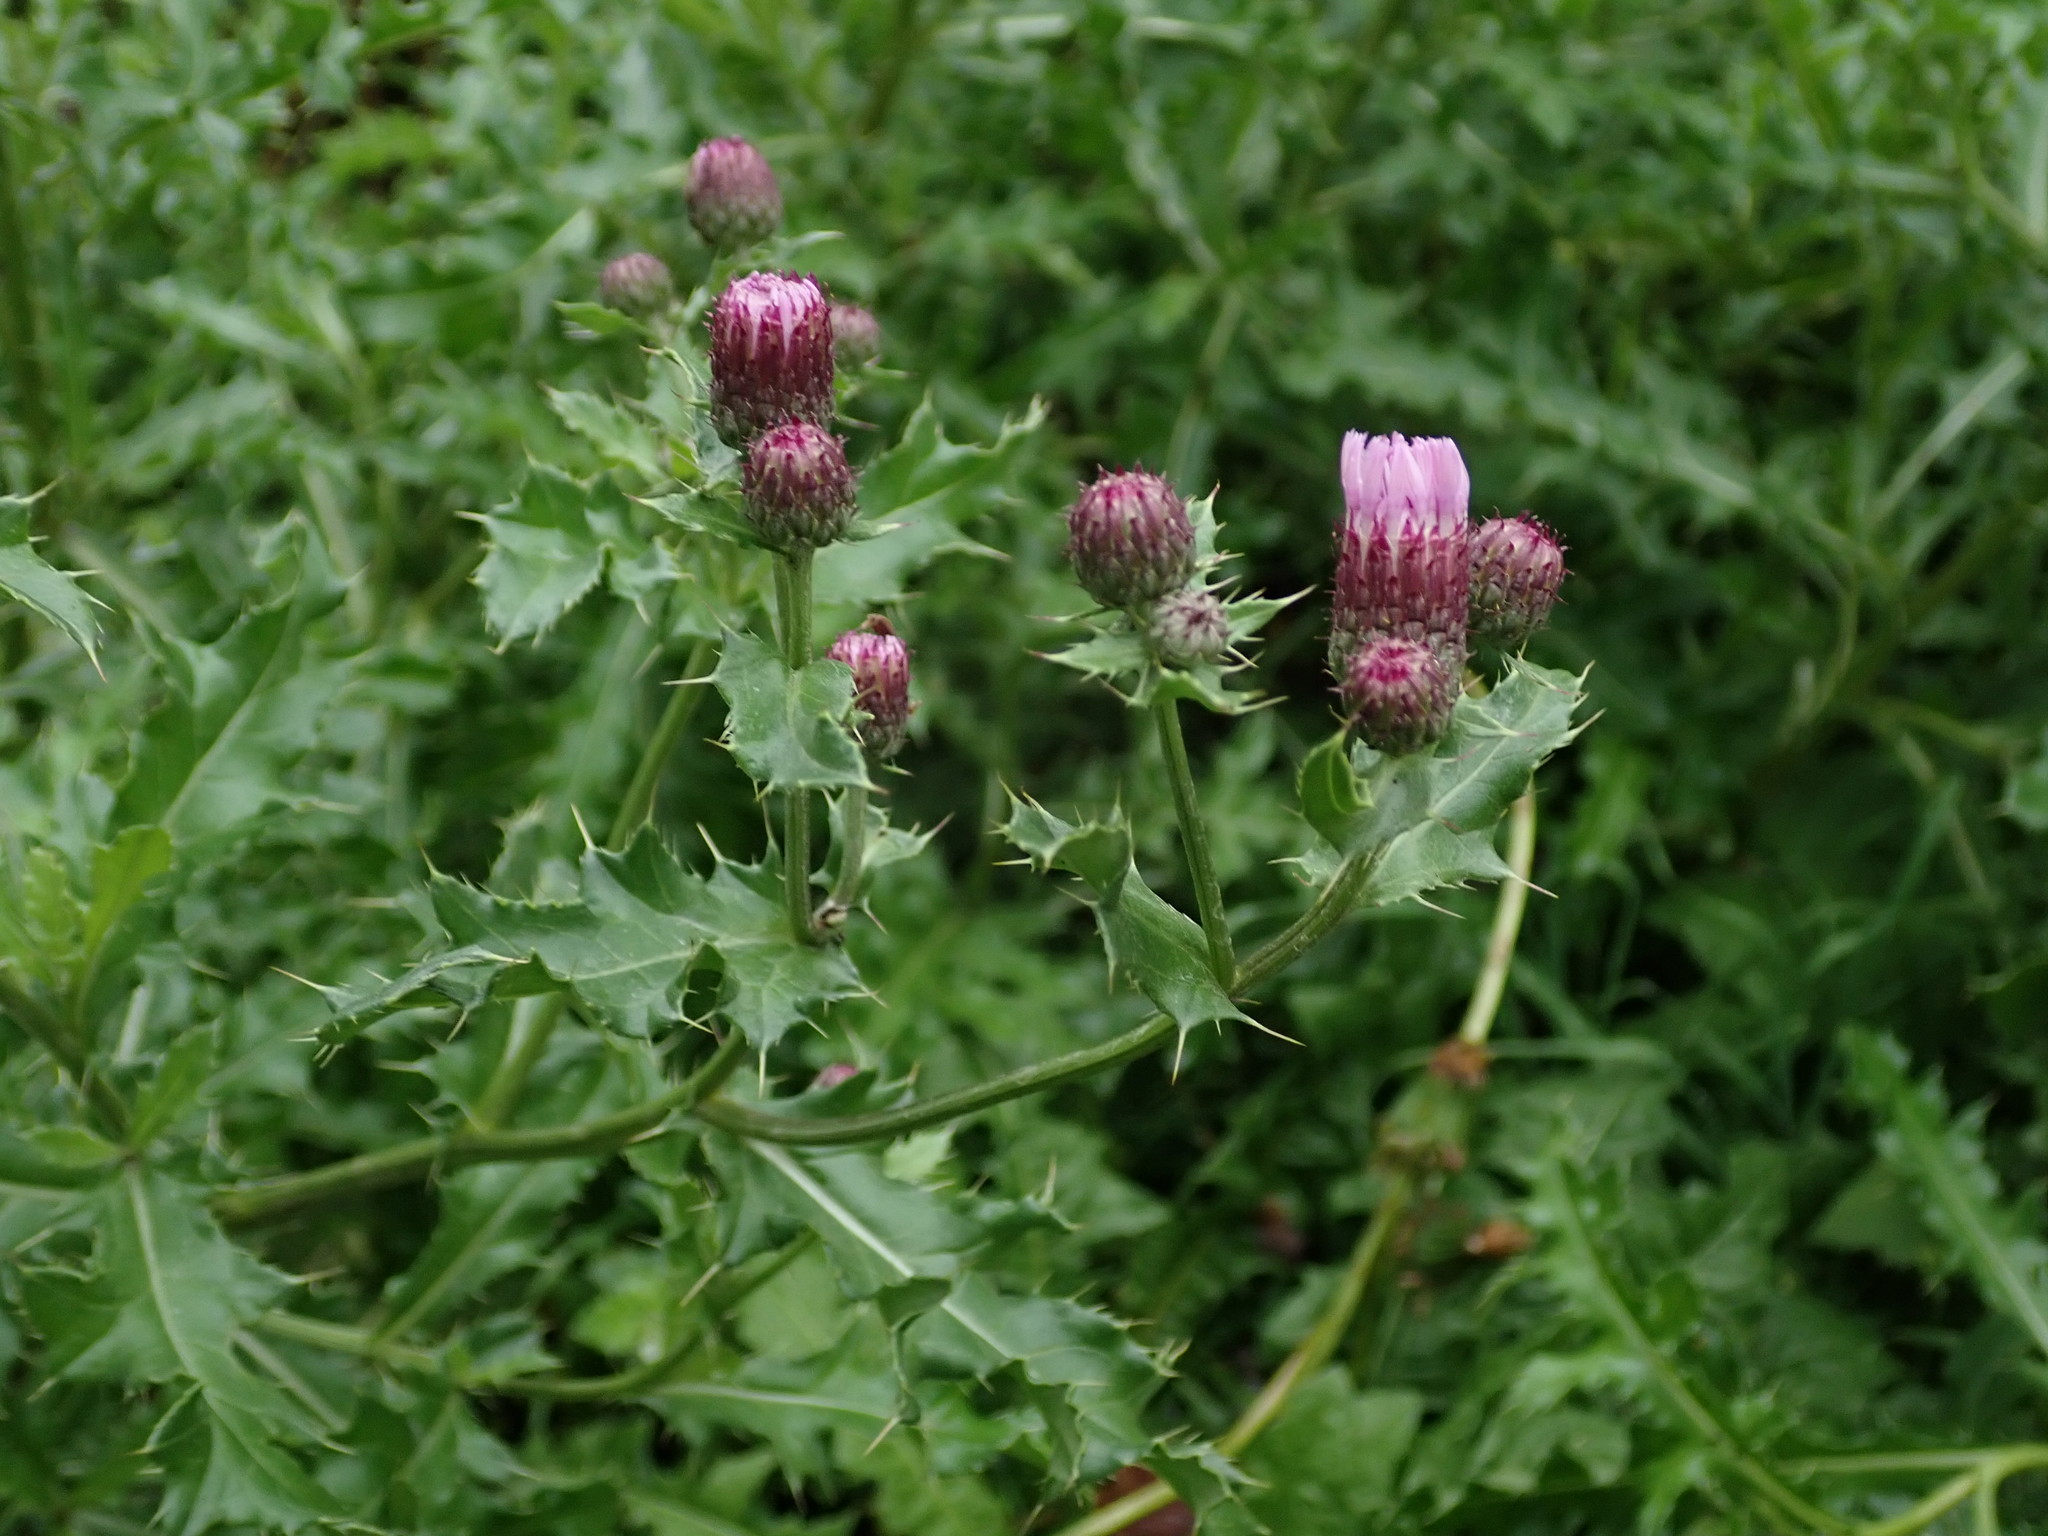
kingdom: Plantae
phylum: Tracheophyta
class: Magnoliopsida
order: Asterales
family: Asteraceae
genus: Cirsium
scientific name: Cirsium arvense
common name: Creeping thistle
